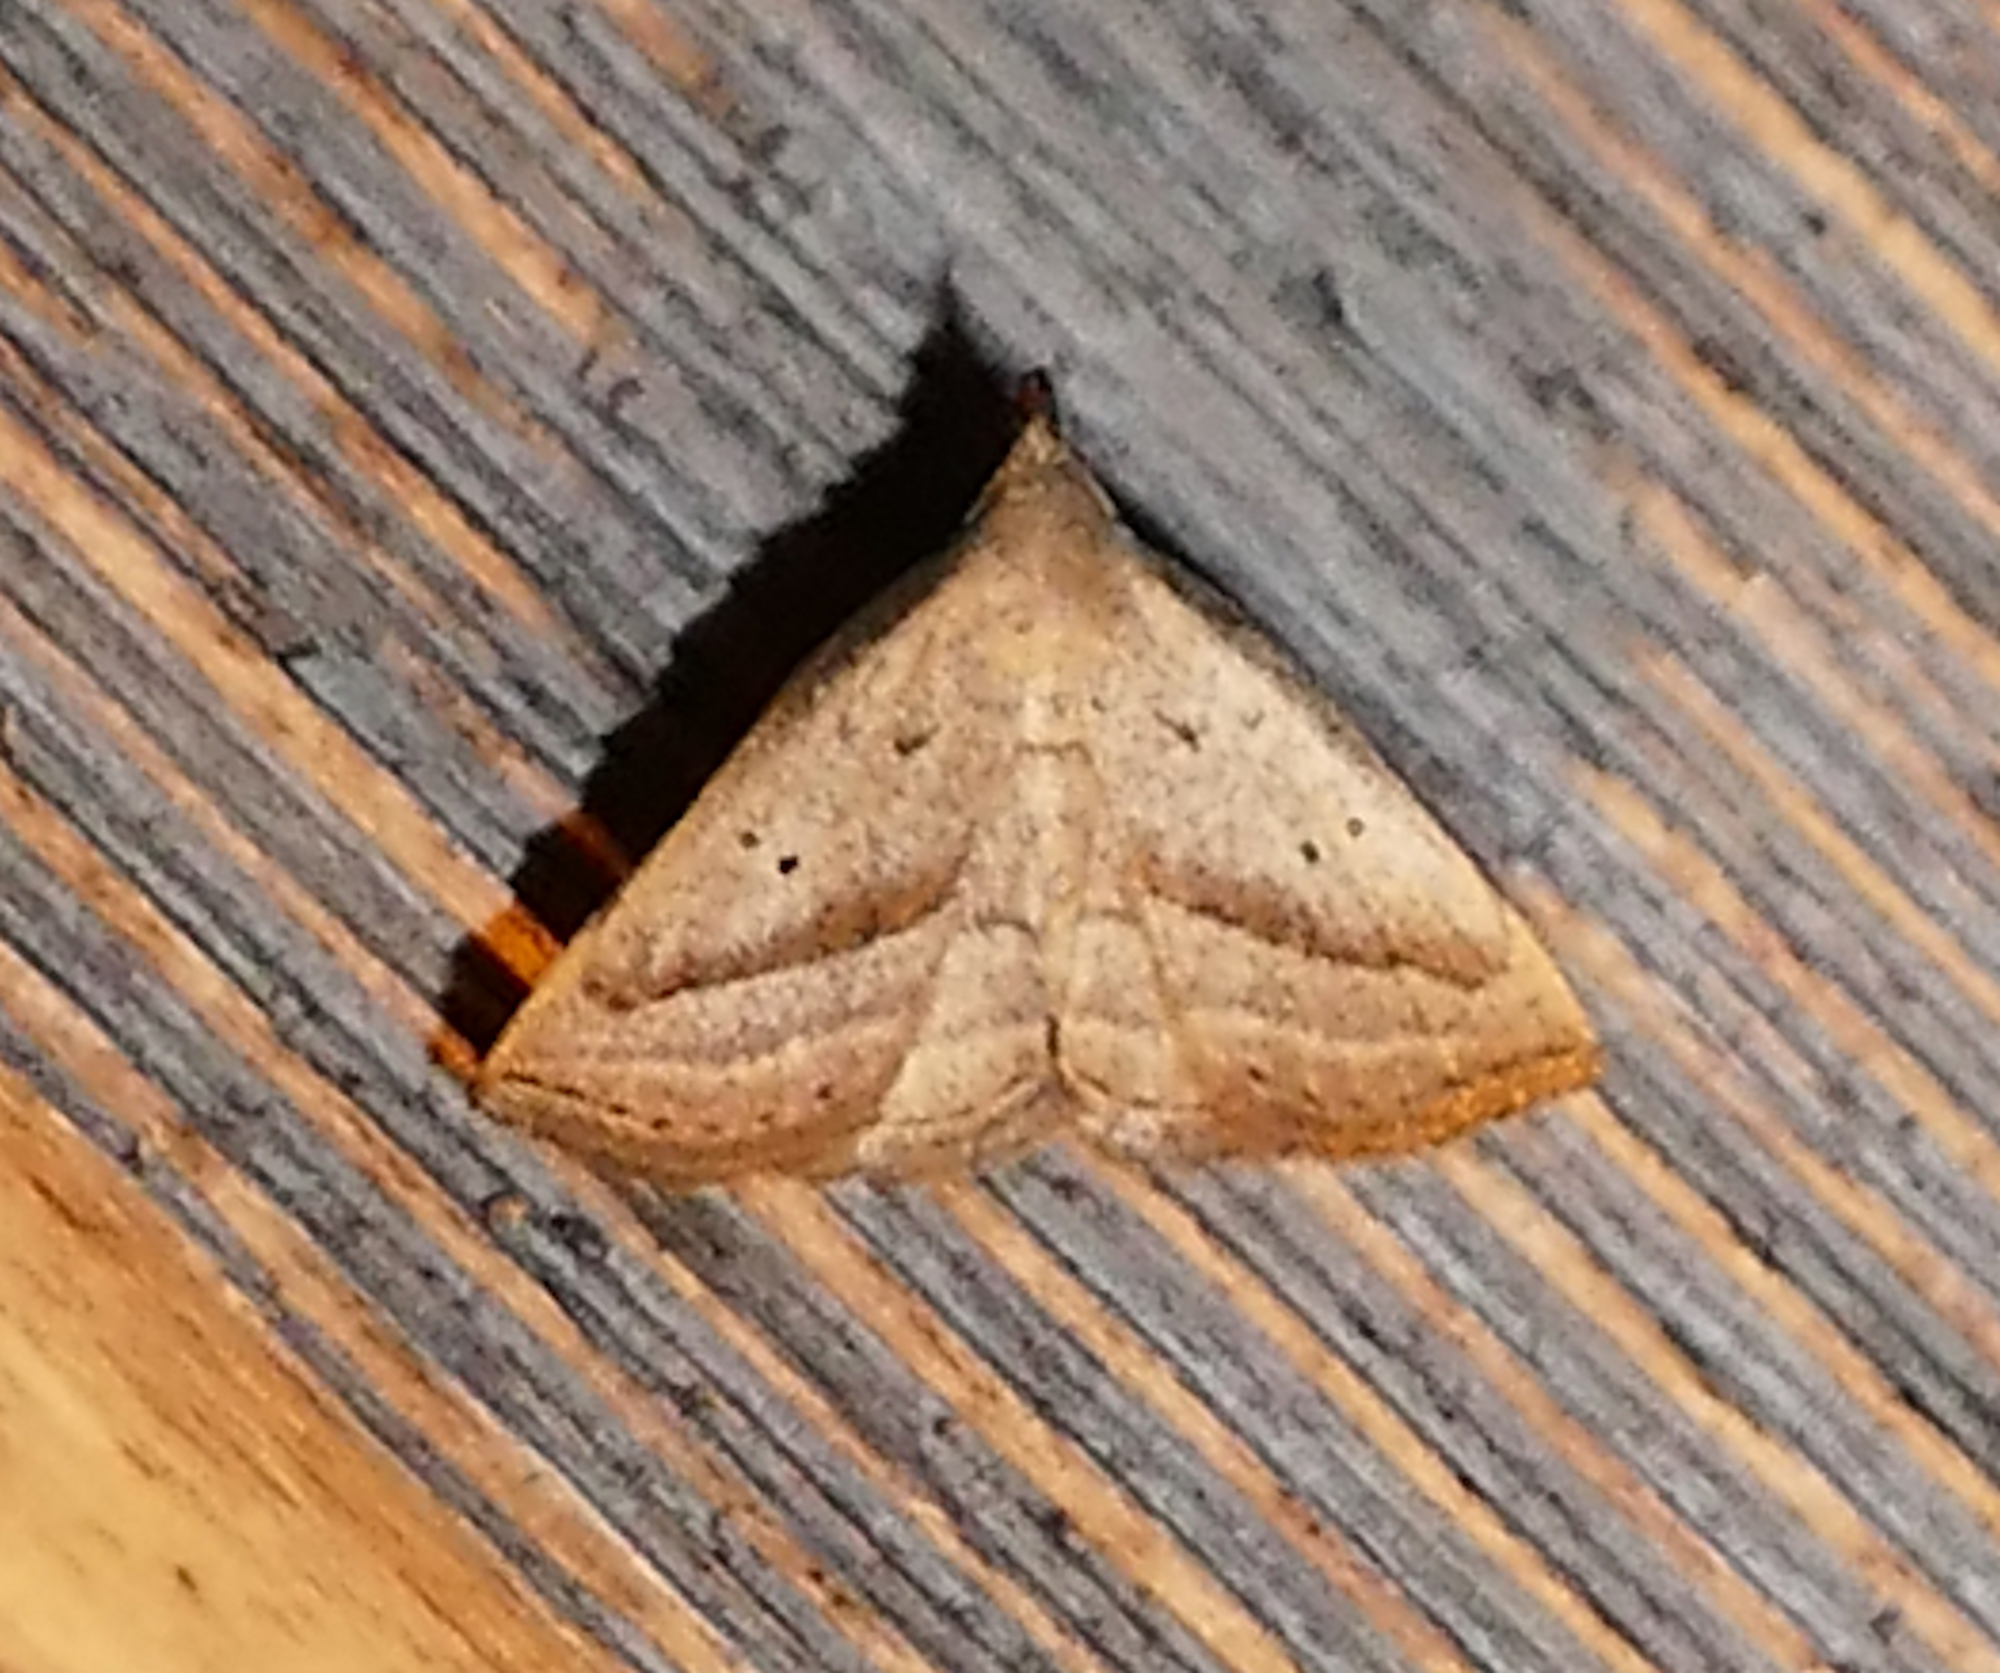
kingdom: Animalia
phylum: Arthropoda
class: Insecta
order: Lepidoptera
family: Erebidae
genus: Macrochilo
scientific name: Macrochilo hypocritalis
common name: Twin-dotted owlet
